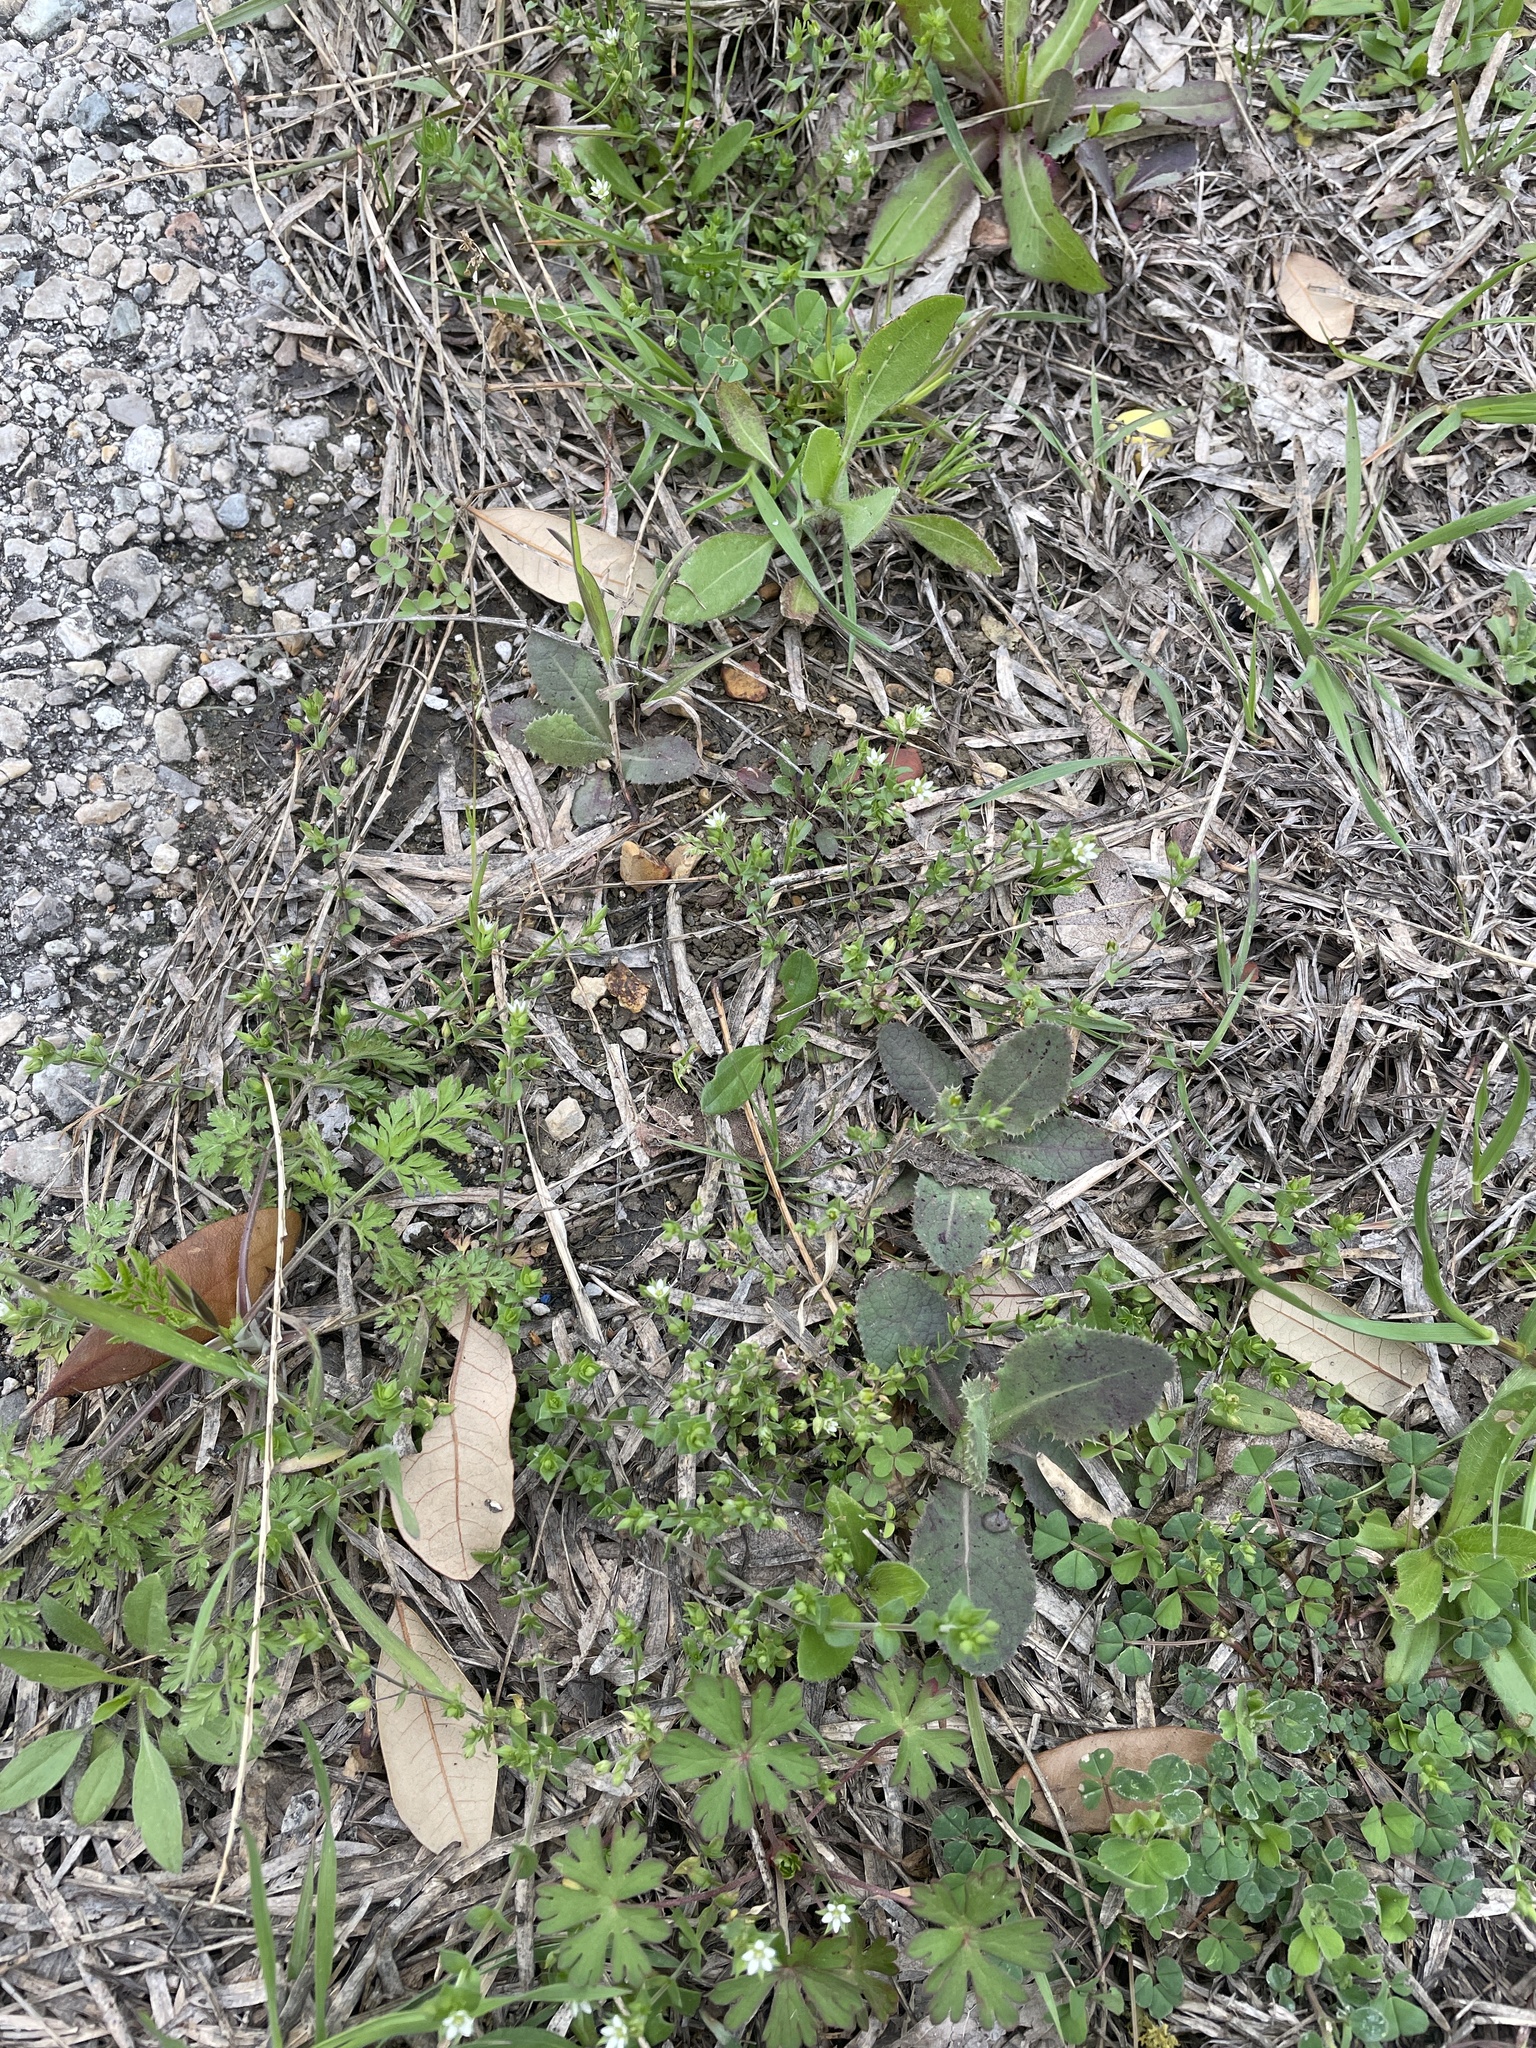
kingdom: Plantae
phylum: Tracheophyta
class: Magnoliopsida
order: Caryophyllales
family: Caryophyllaceae
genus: Arenaria
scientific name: Arenaria serpyllifolia
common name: Thyme-leaved sandwort
